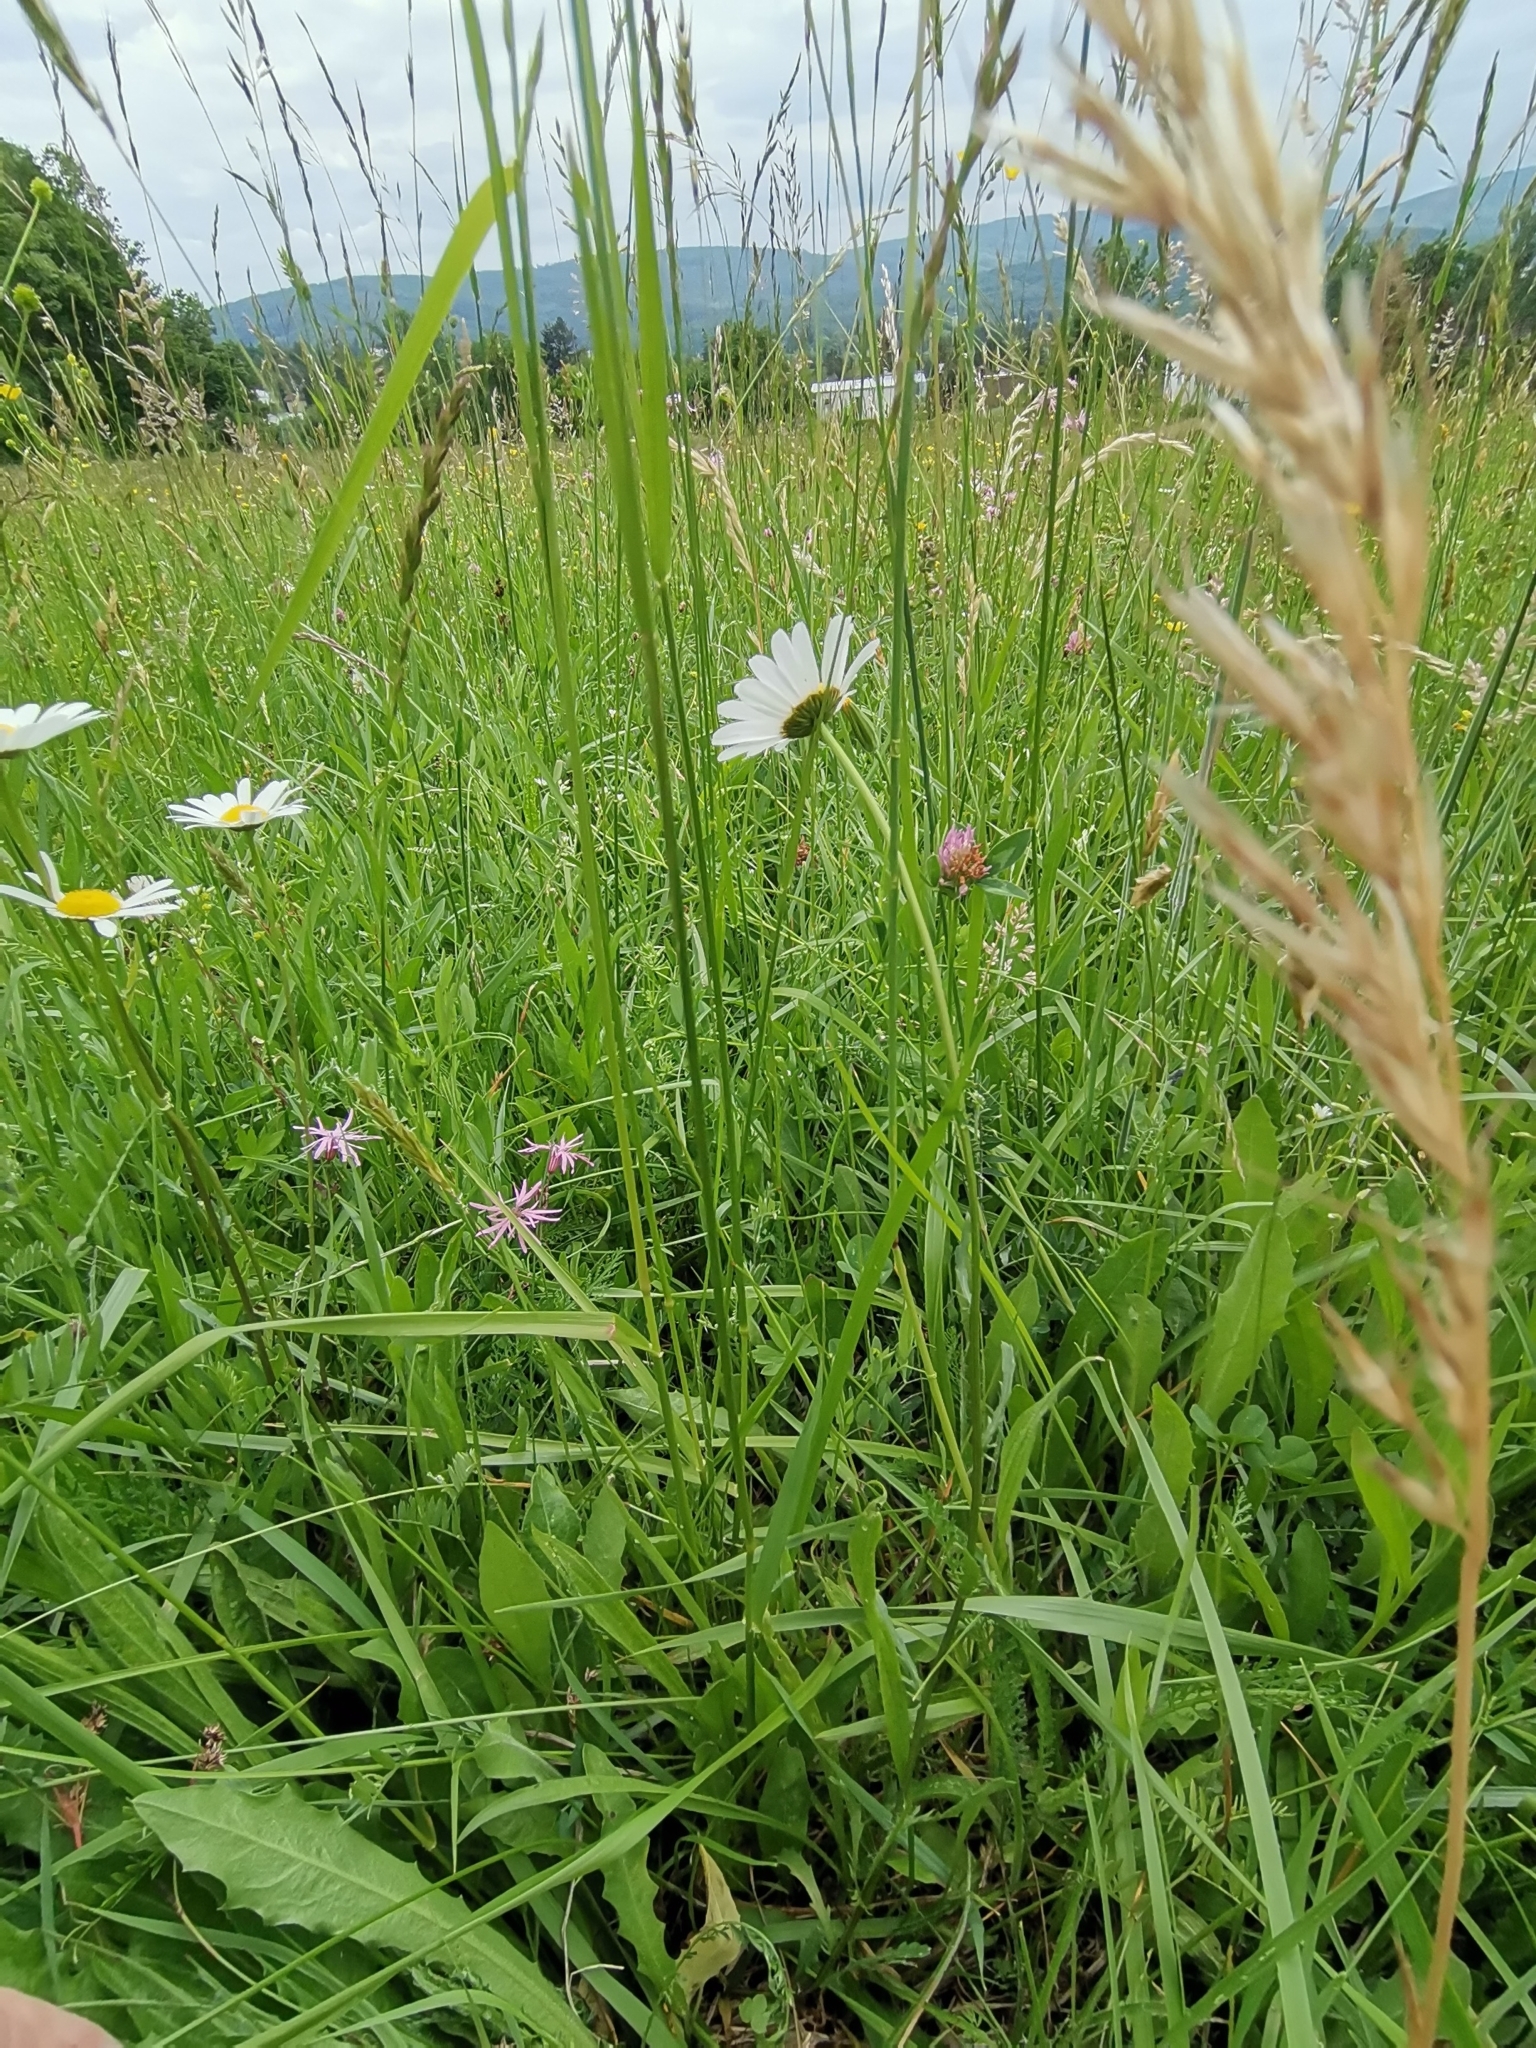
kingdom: Plantae
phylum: Tracheophyta
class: Magnoliopsida
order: Asterales
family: Asteraceae
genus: Leucanthemum
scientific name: Leucanthemum vulgare
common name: Oxeye daisy
